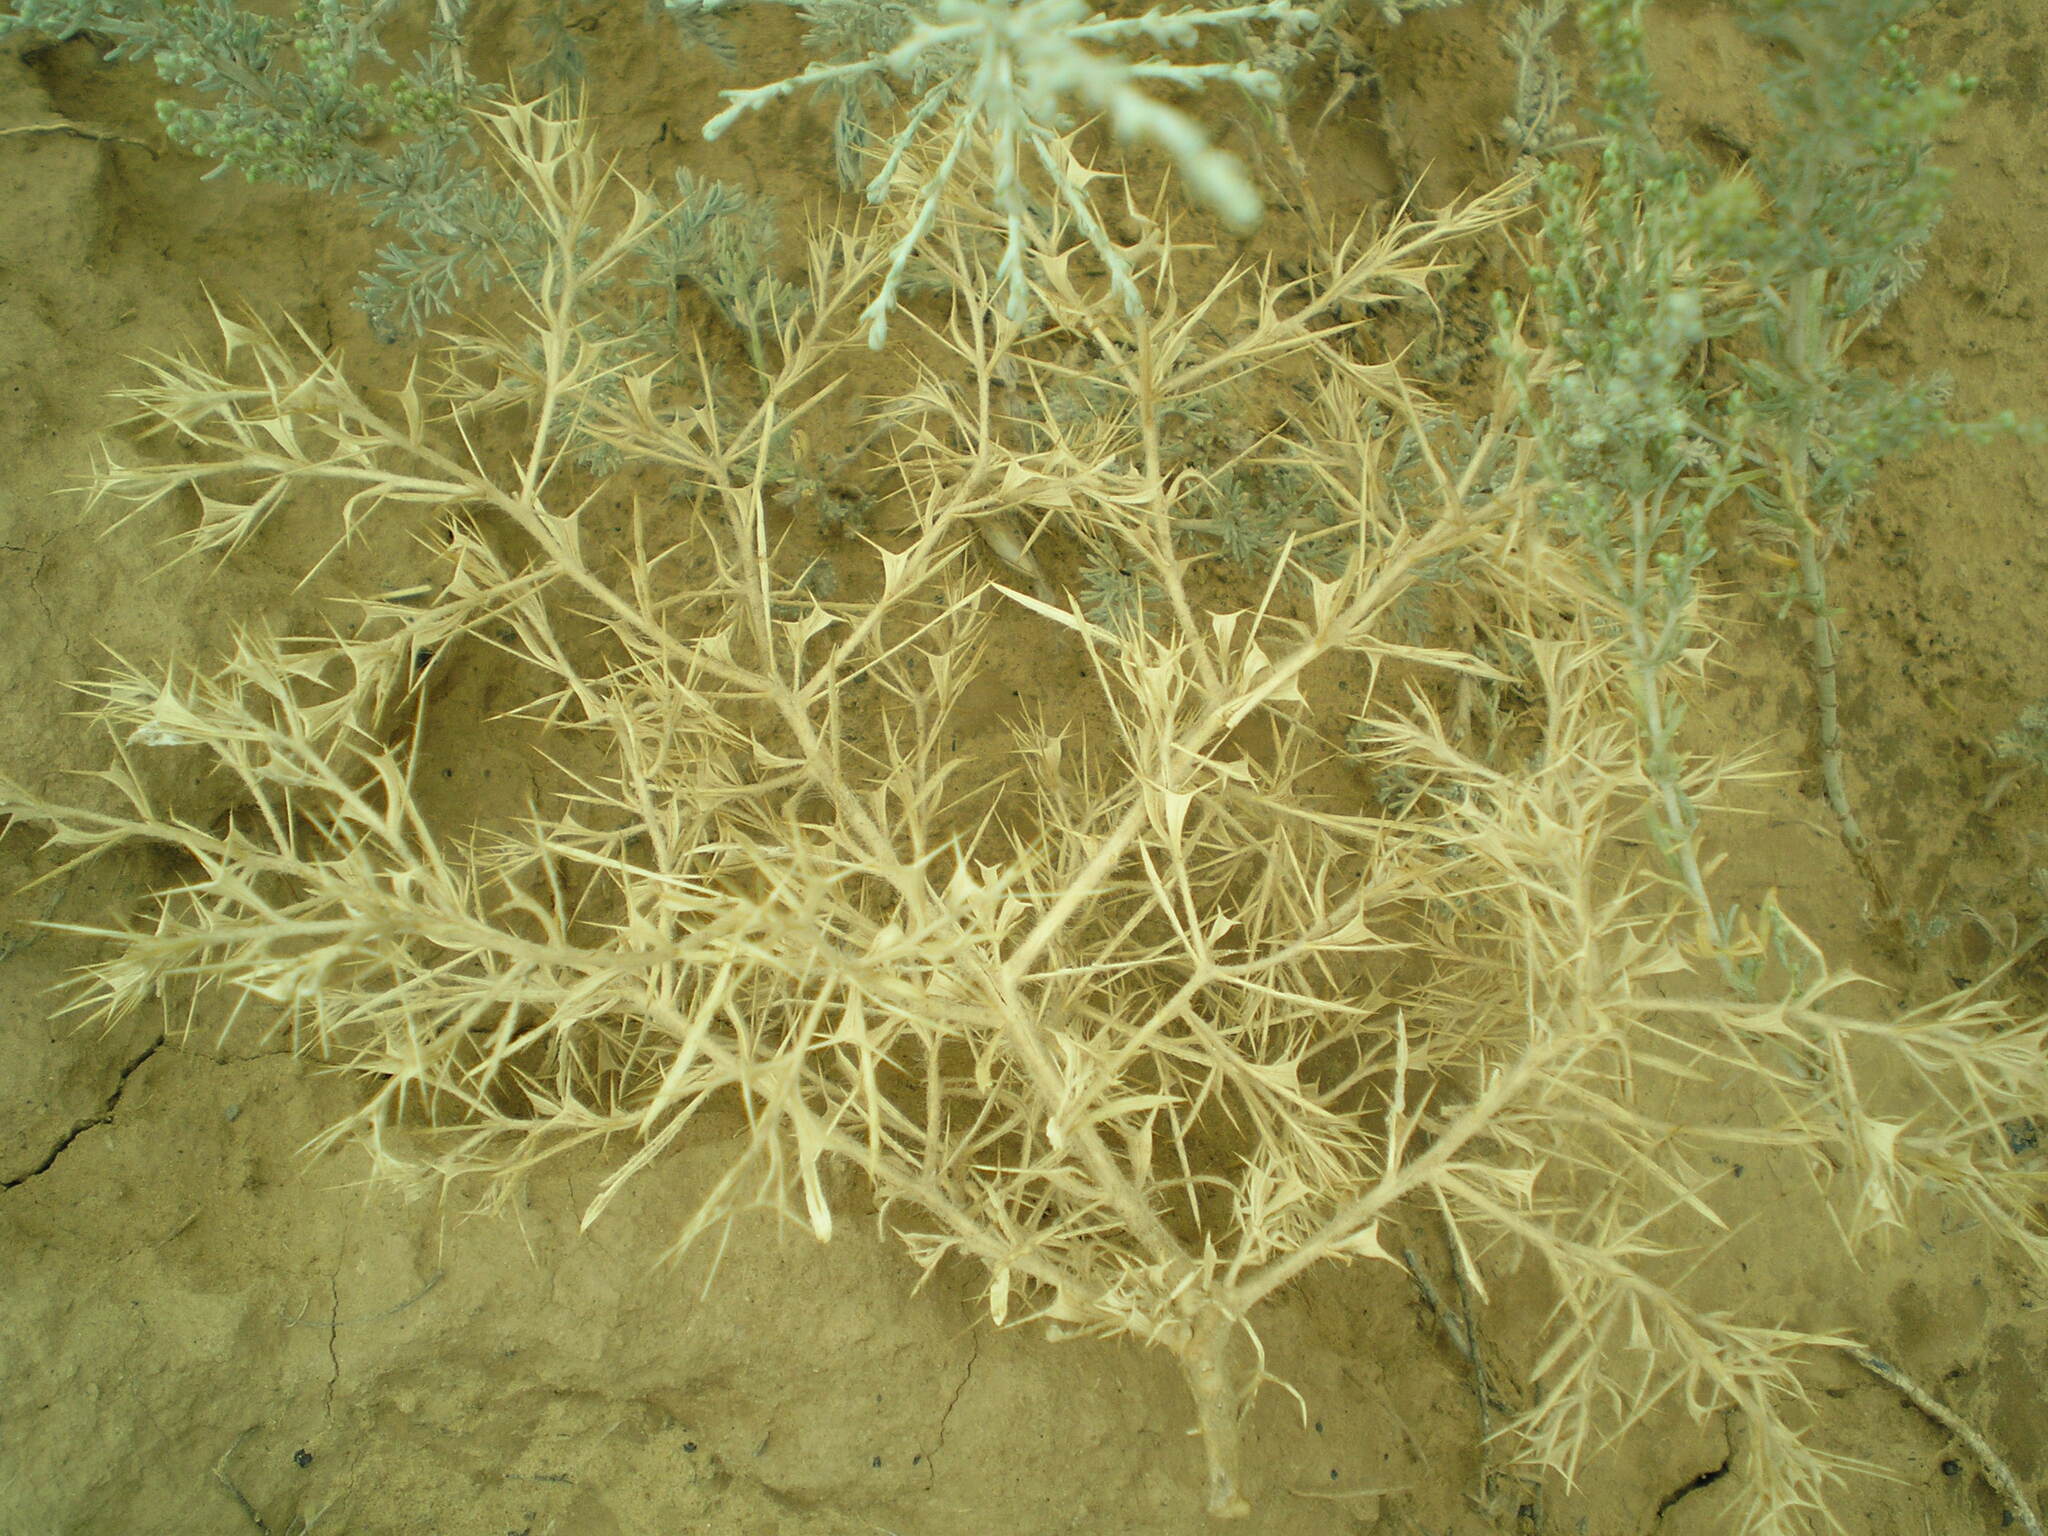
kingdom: Plantae
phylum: Tracheophyta
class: Magnoliopsida
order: Caryophyllales
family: Amaranthaceae
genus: Ceratocarpus
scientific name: Ceratocarpus arenarius
